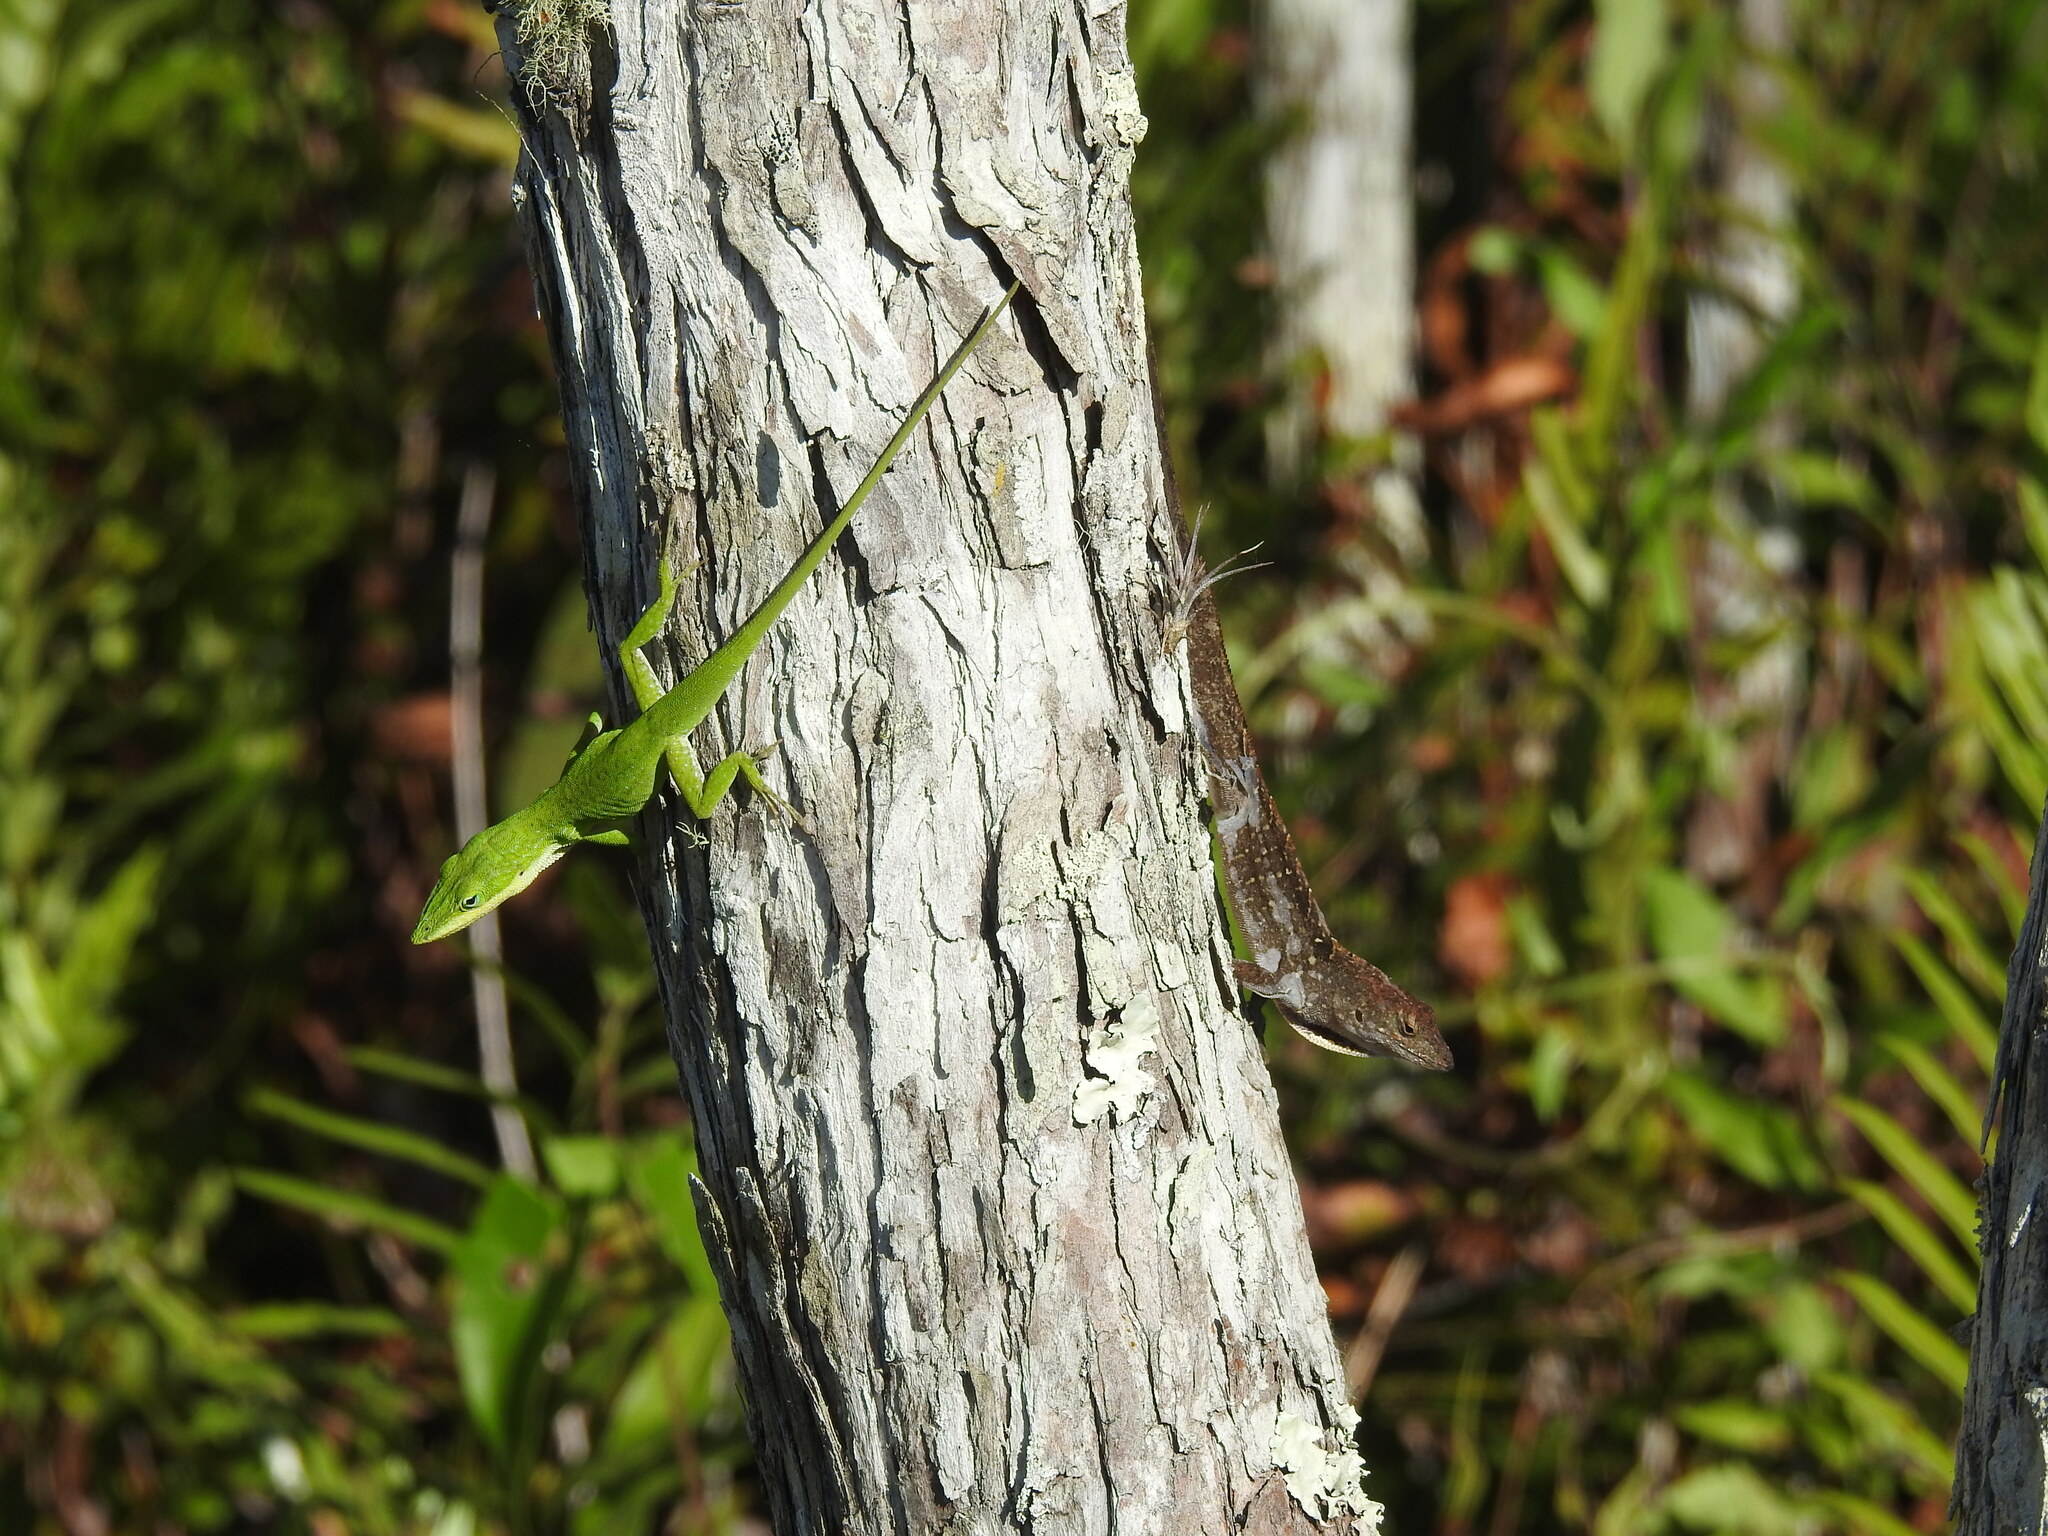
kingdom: Animalia
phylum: Chordata
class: Squamata
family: Dactyloidae
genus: Anolis
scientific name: Anolis sagrei
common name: Brown anole
